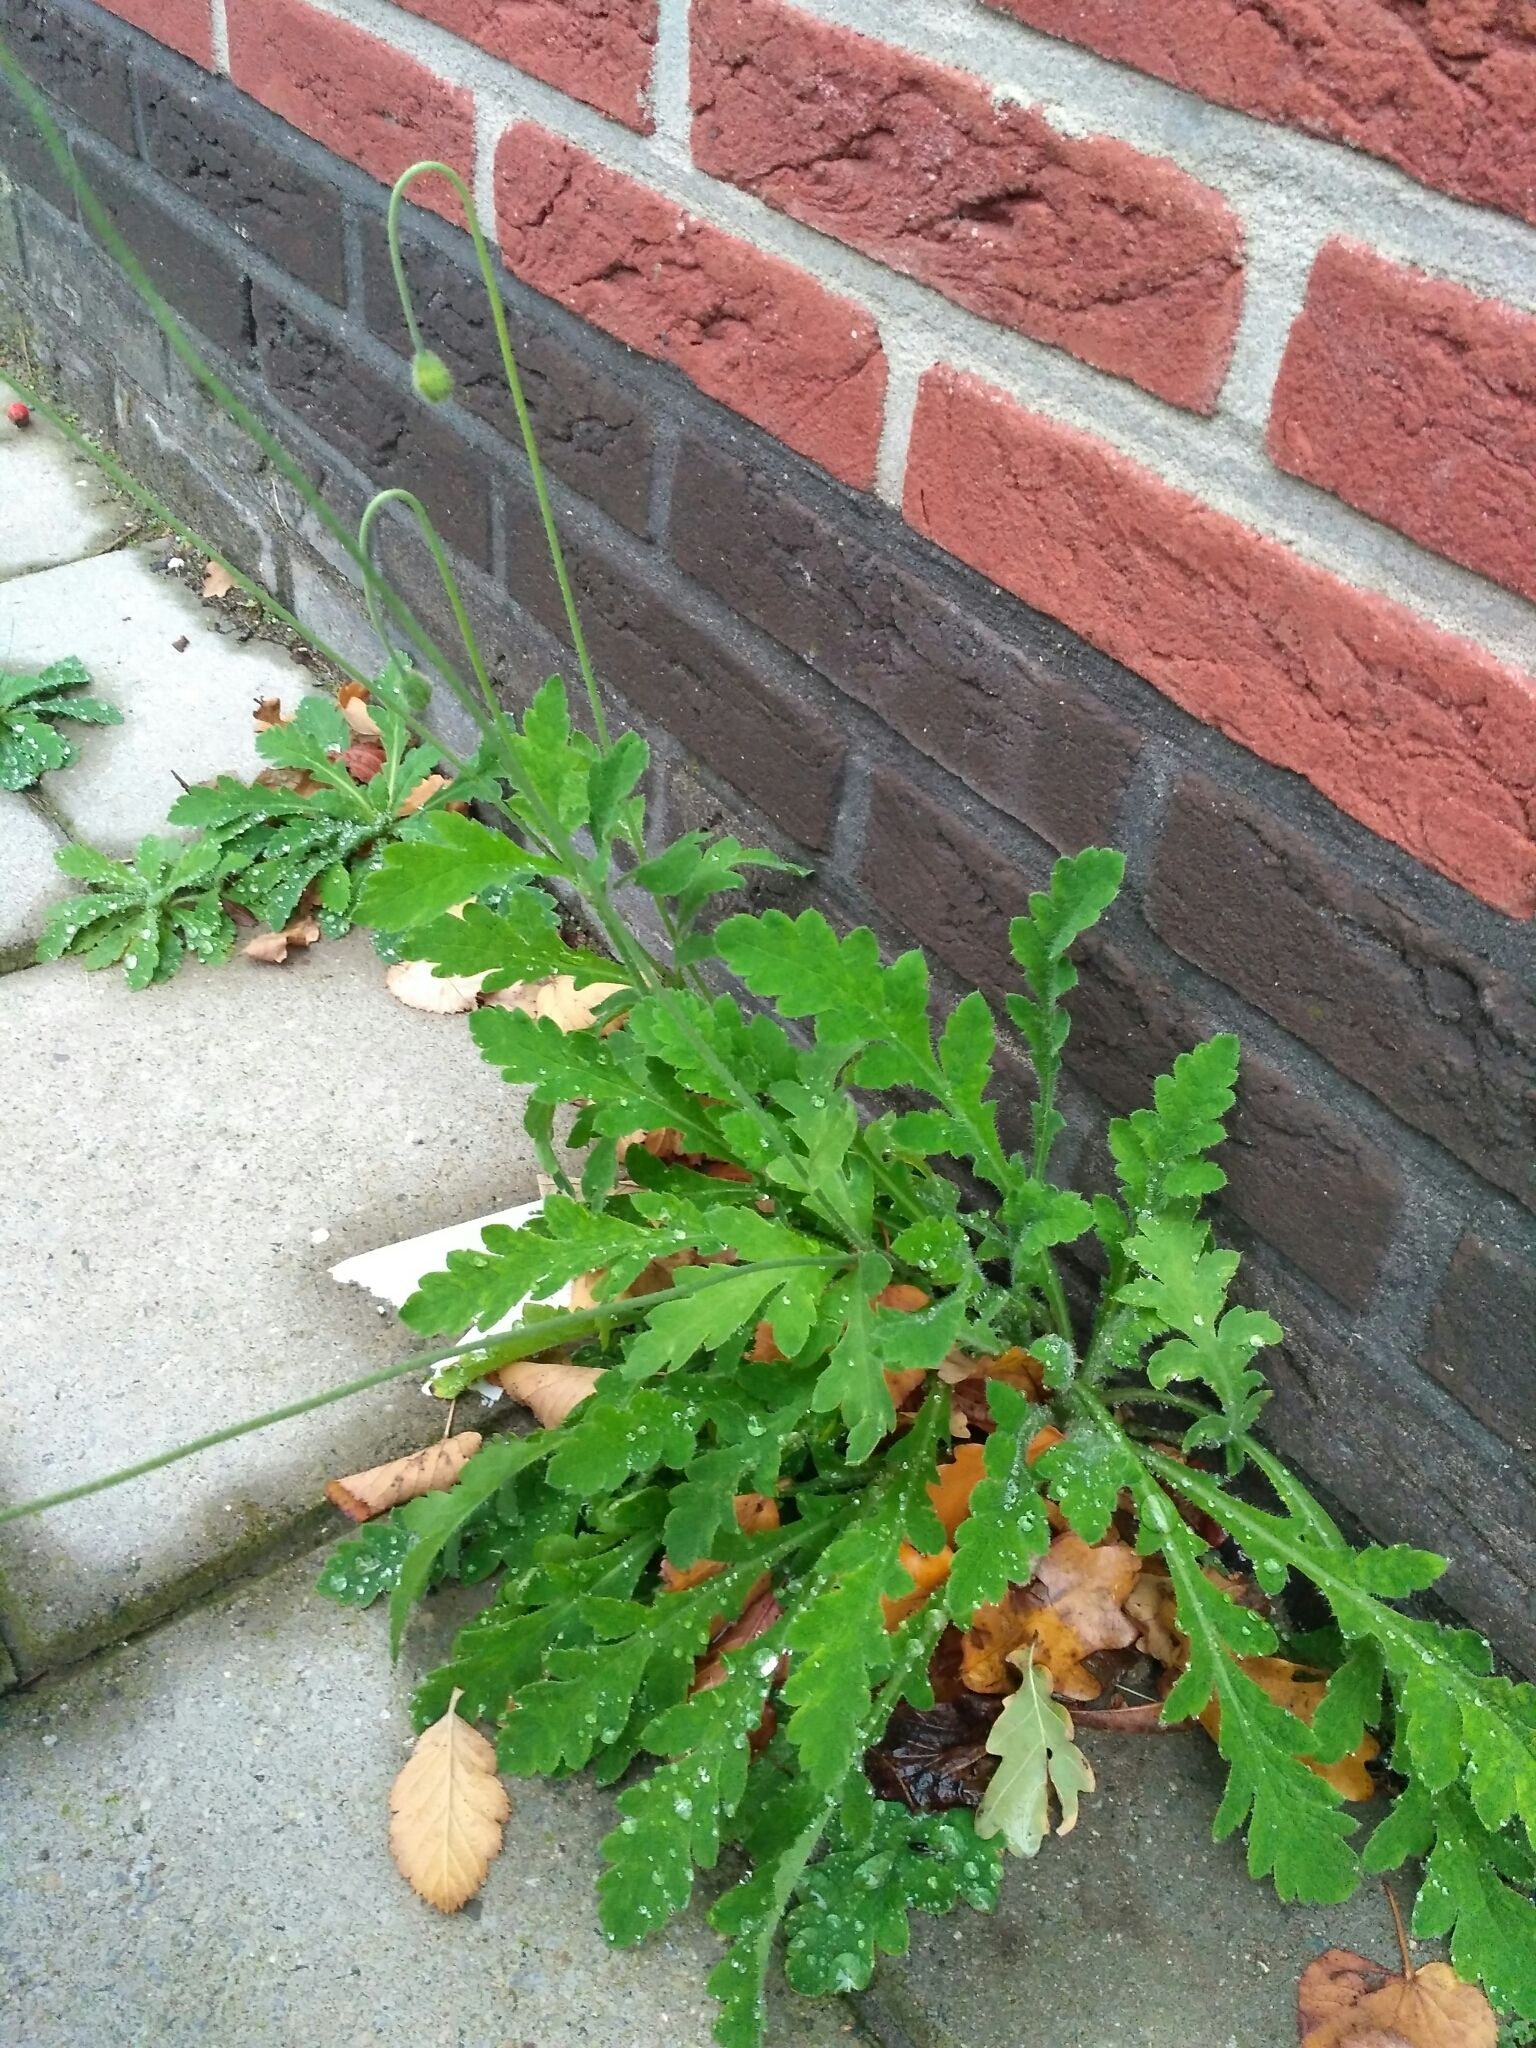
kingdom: Plantae
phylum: Tracheophyta
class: Magnoliopsida
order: Ranunculales
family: Papaveraceae
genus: Papaver
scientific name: Papaver atlanticum
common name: Atlas poppy
